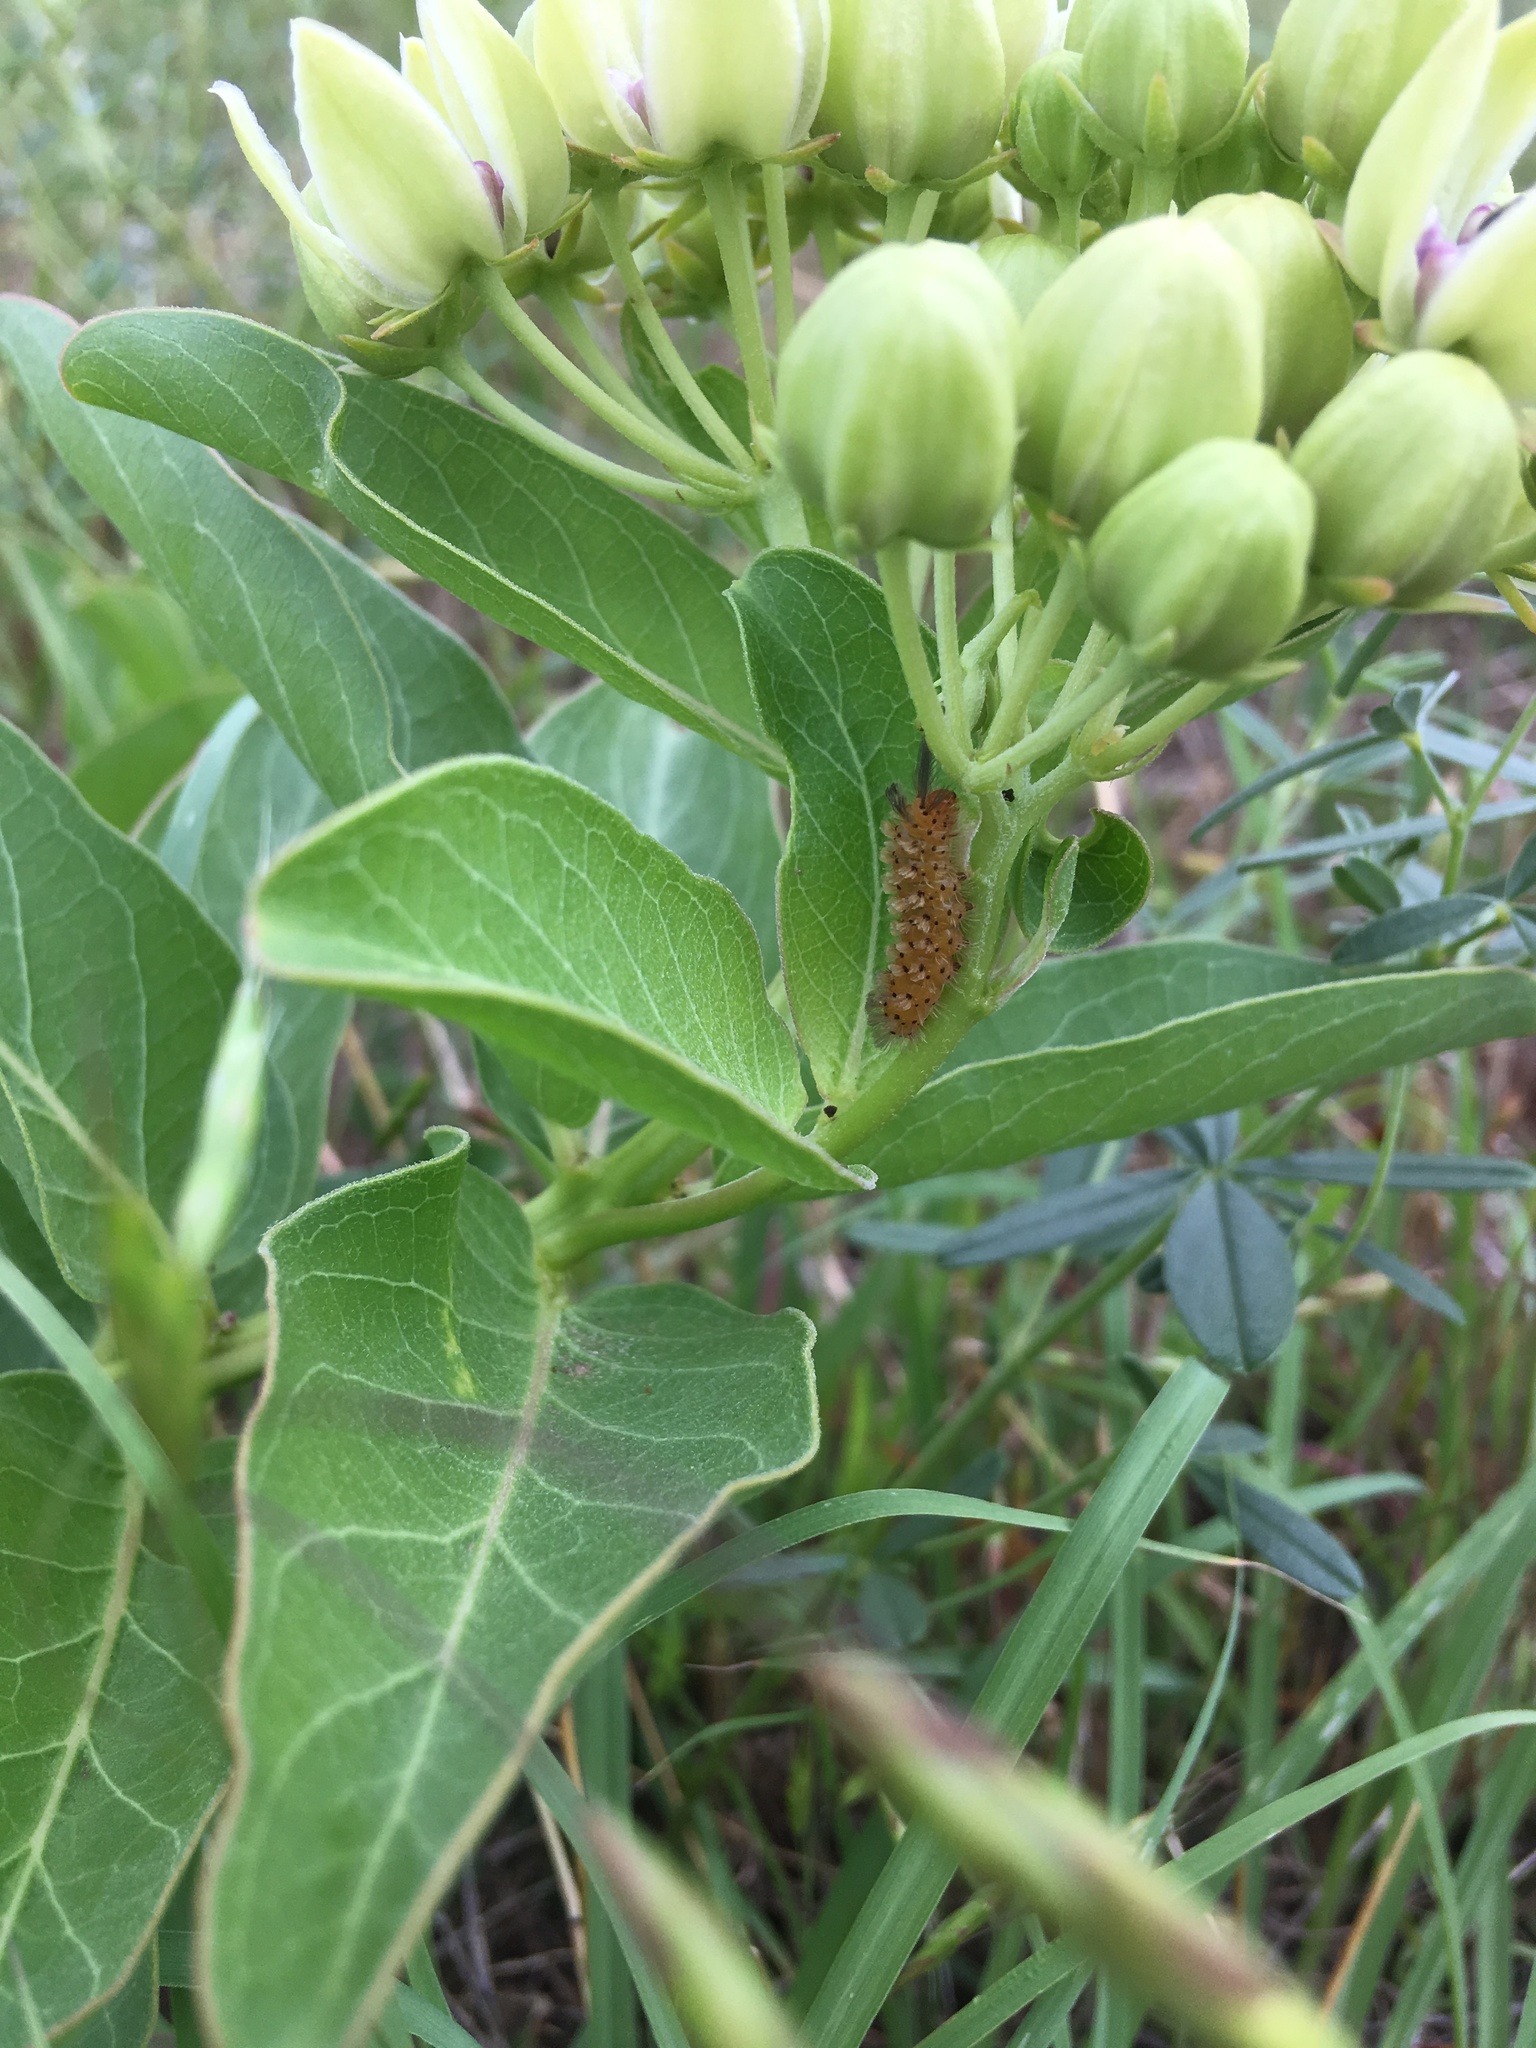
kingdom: Animalia
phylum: Arthropoda
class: Insecta
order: Lepidoptera
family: Erebidae
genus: Cycnia
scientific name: Cycnia collaris
